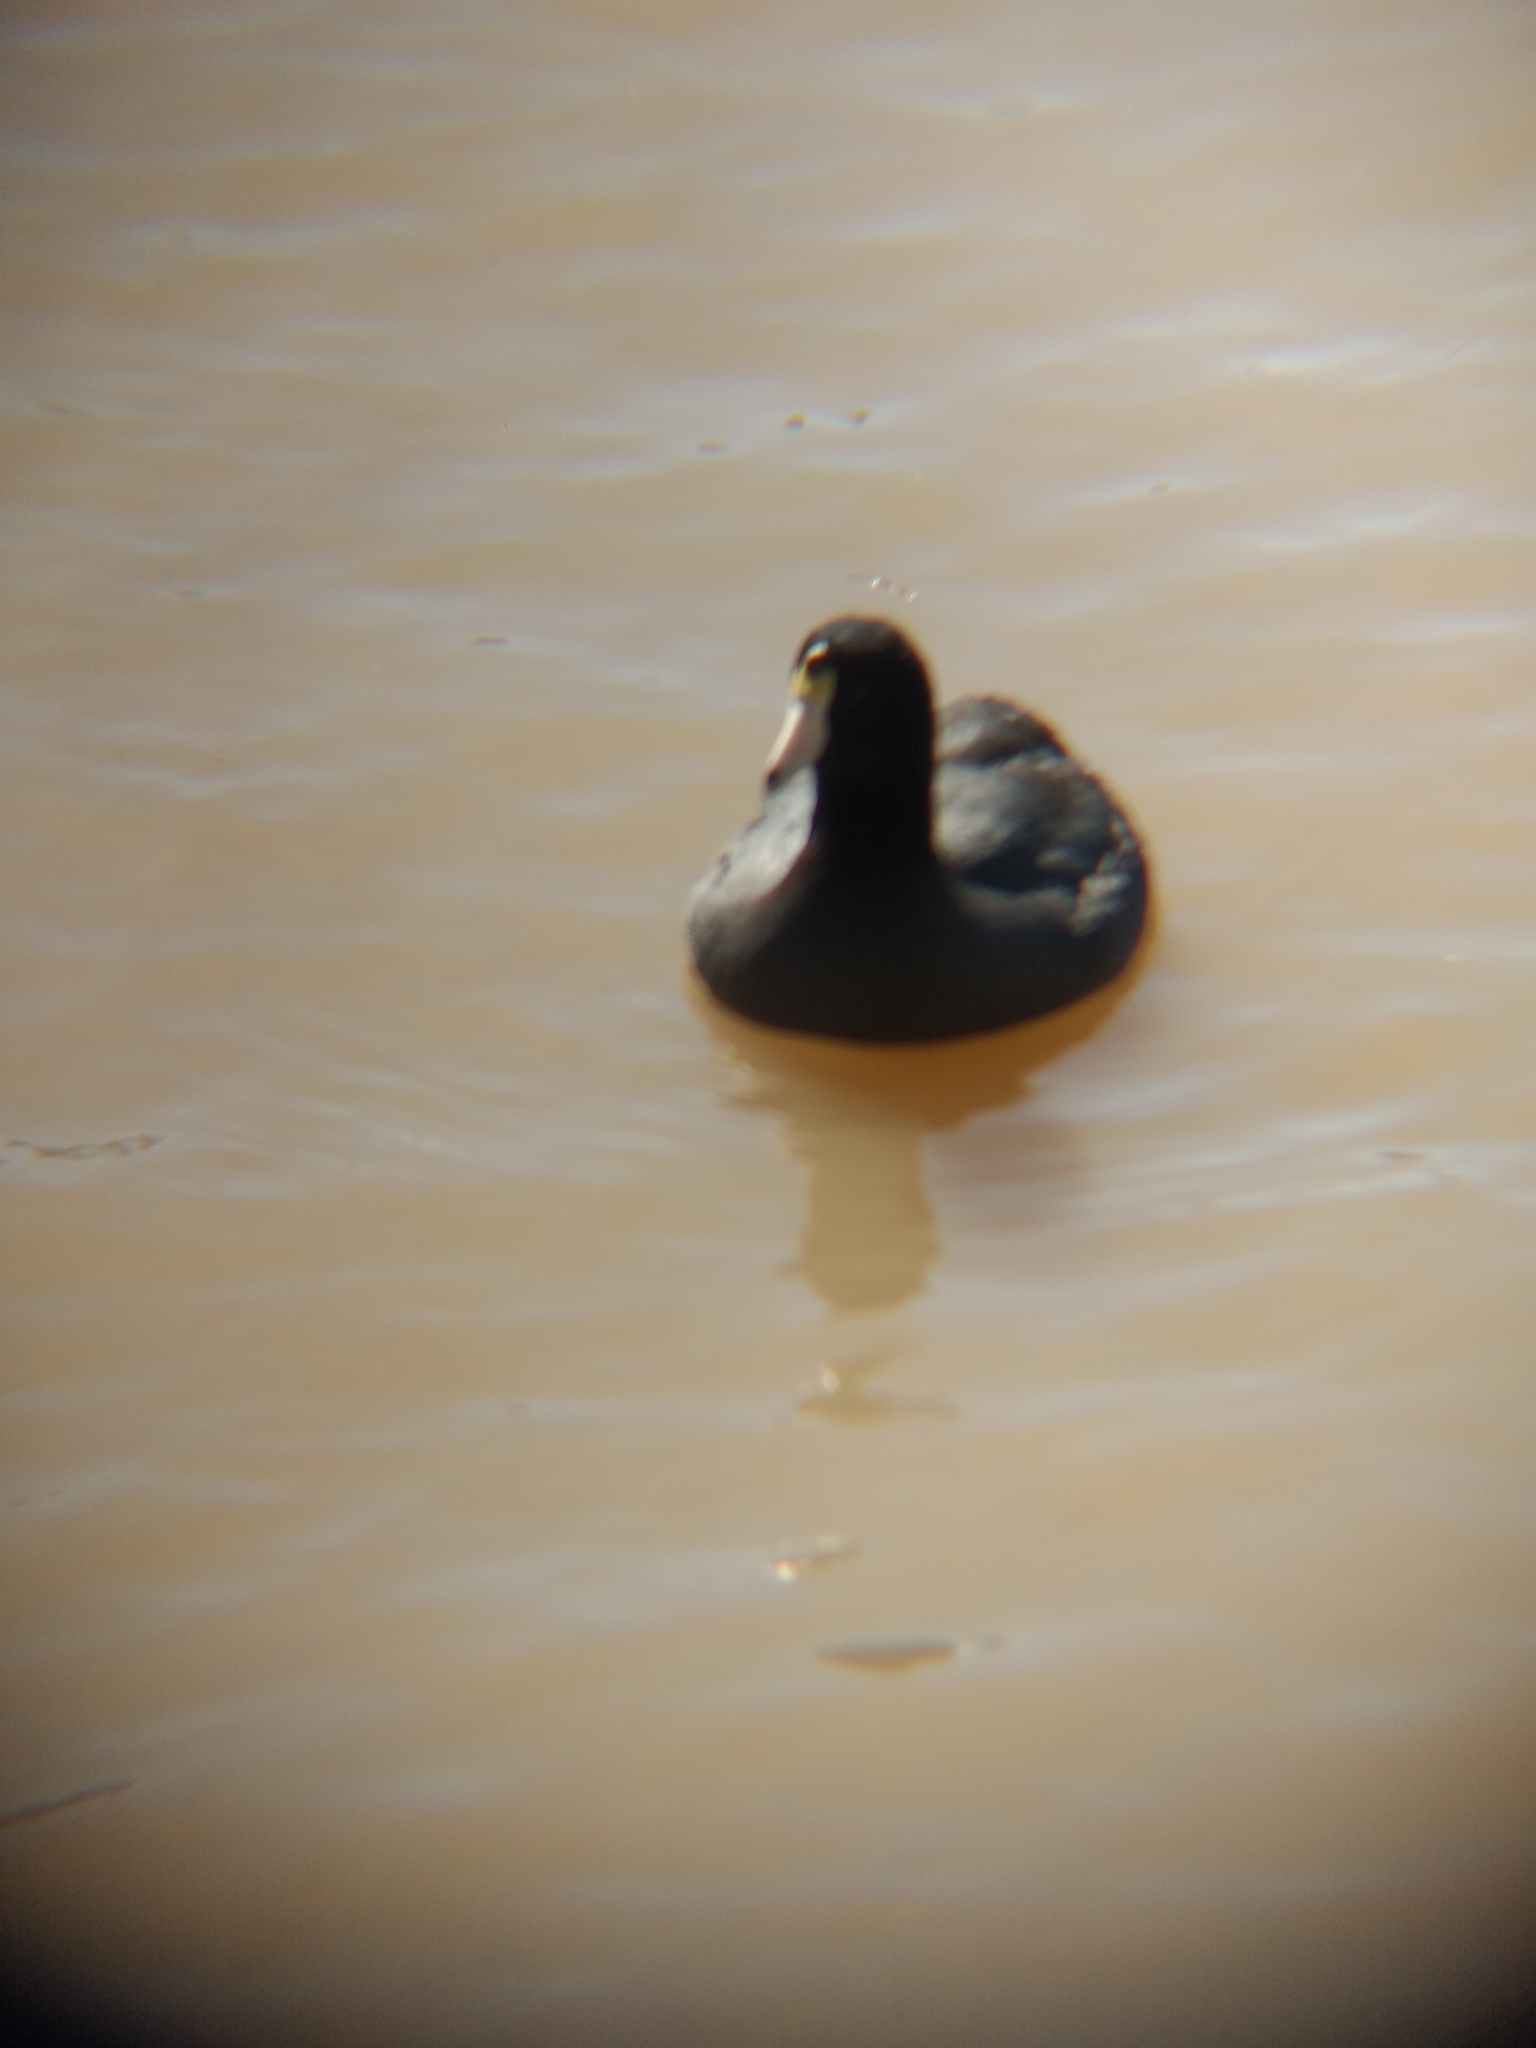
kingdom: Animalia
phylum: Chordata
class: Aves
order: Gruiformes
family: Rallidae
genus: Fulica
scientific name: Fulica americana
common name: American coot
